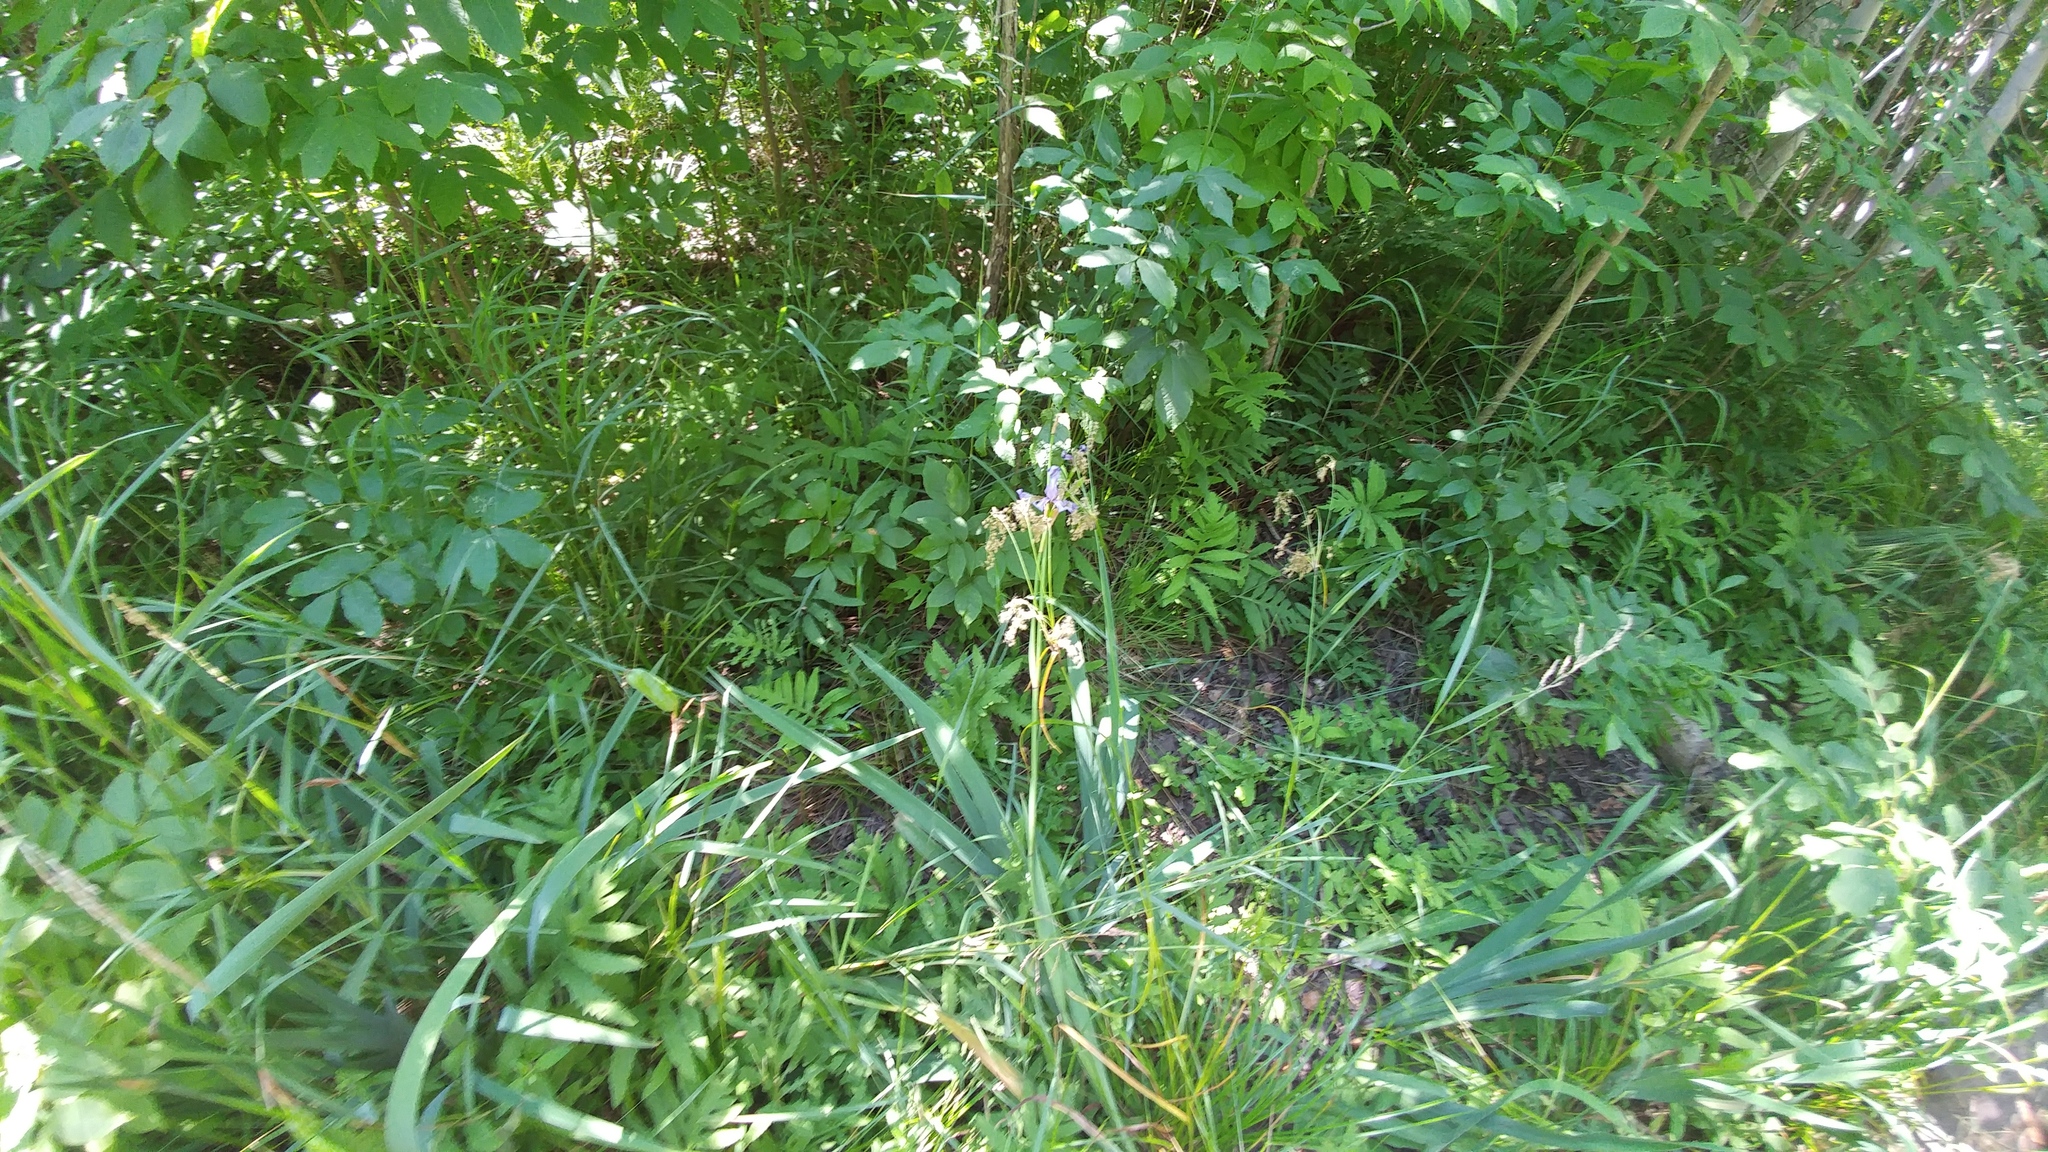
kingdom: Plantae
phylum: Tracheophyta
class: Polypodiopsida
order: Polypodiales
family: Onocleaceae
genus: Onoclea
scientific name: Onoclea sensibilis
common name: Sensitive fern
